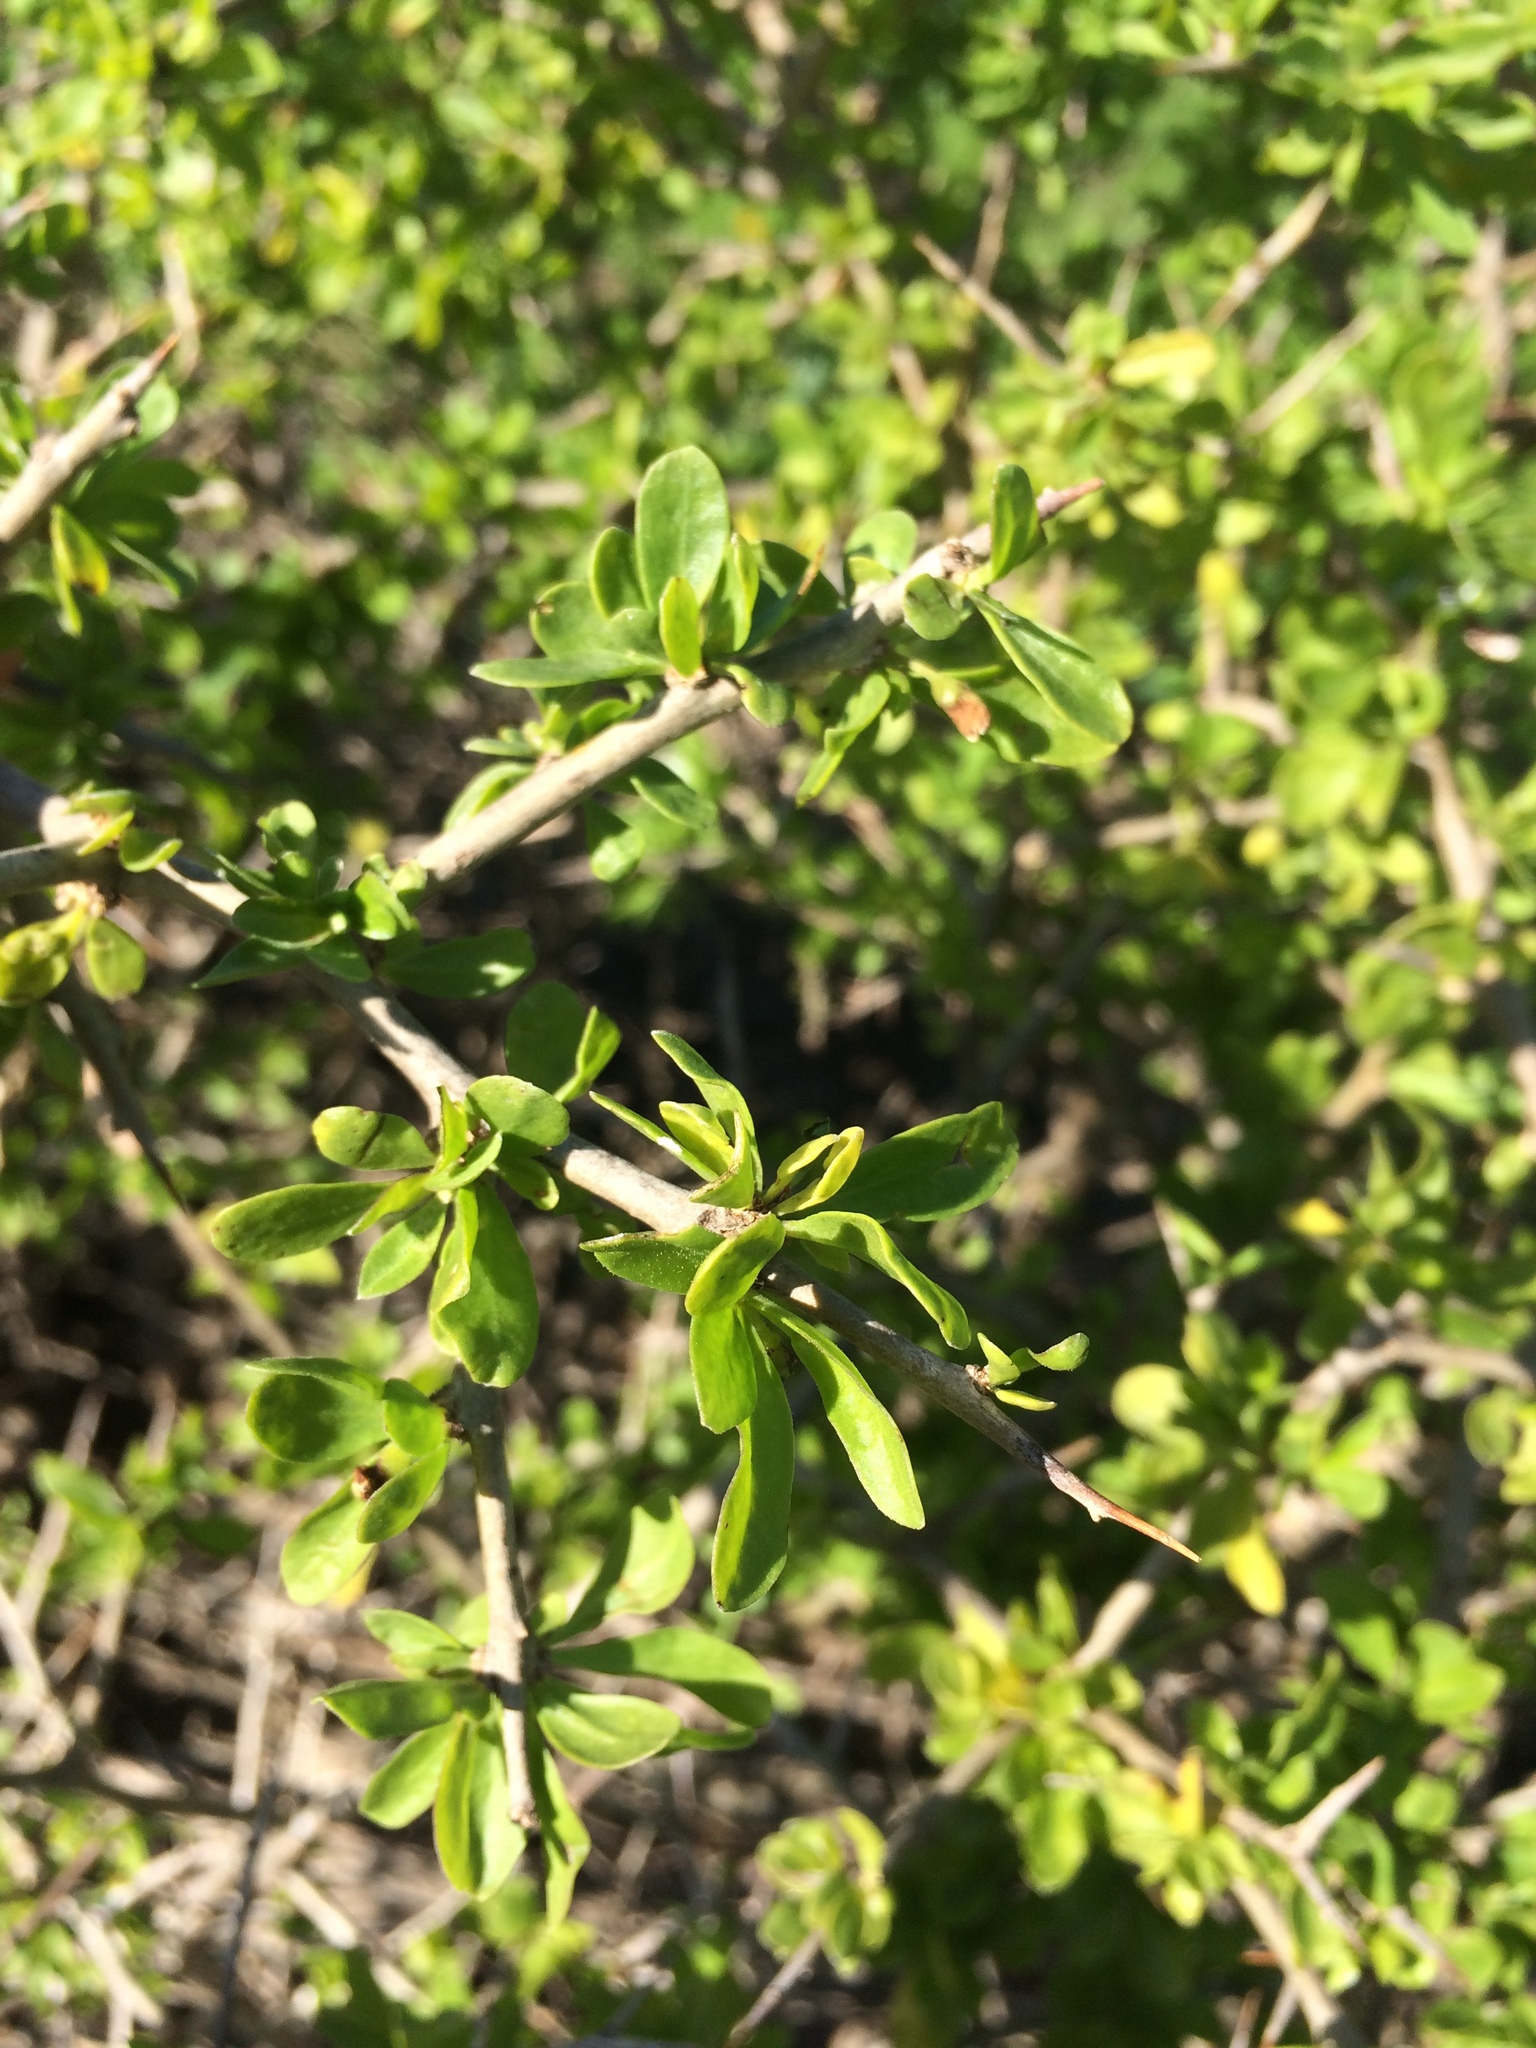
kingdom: Plantae
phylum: Tracheophyta
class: Magnoliopsida
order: Solanales
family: Solanaceae
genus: Lycium
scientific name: Lycium ferocissimum
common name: African boxthorn
